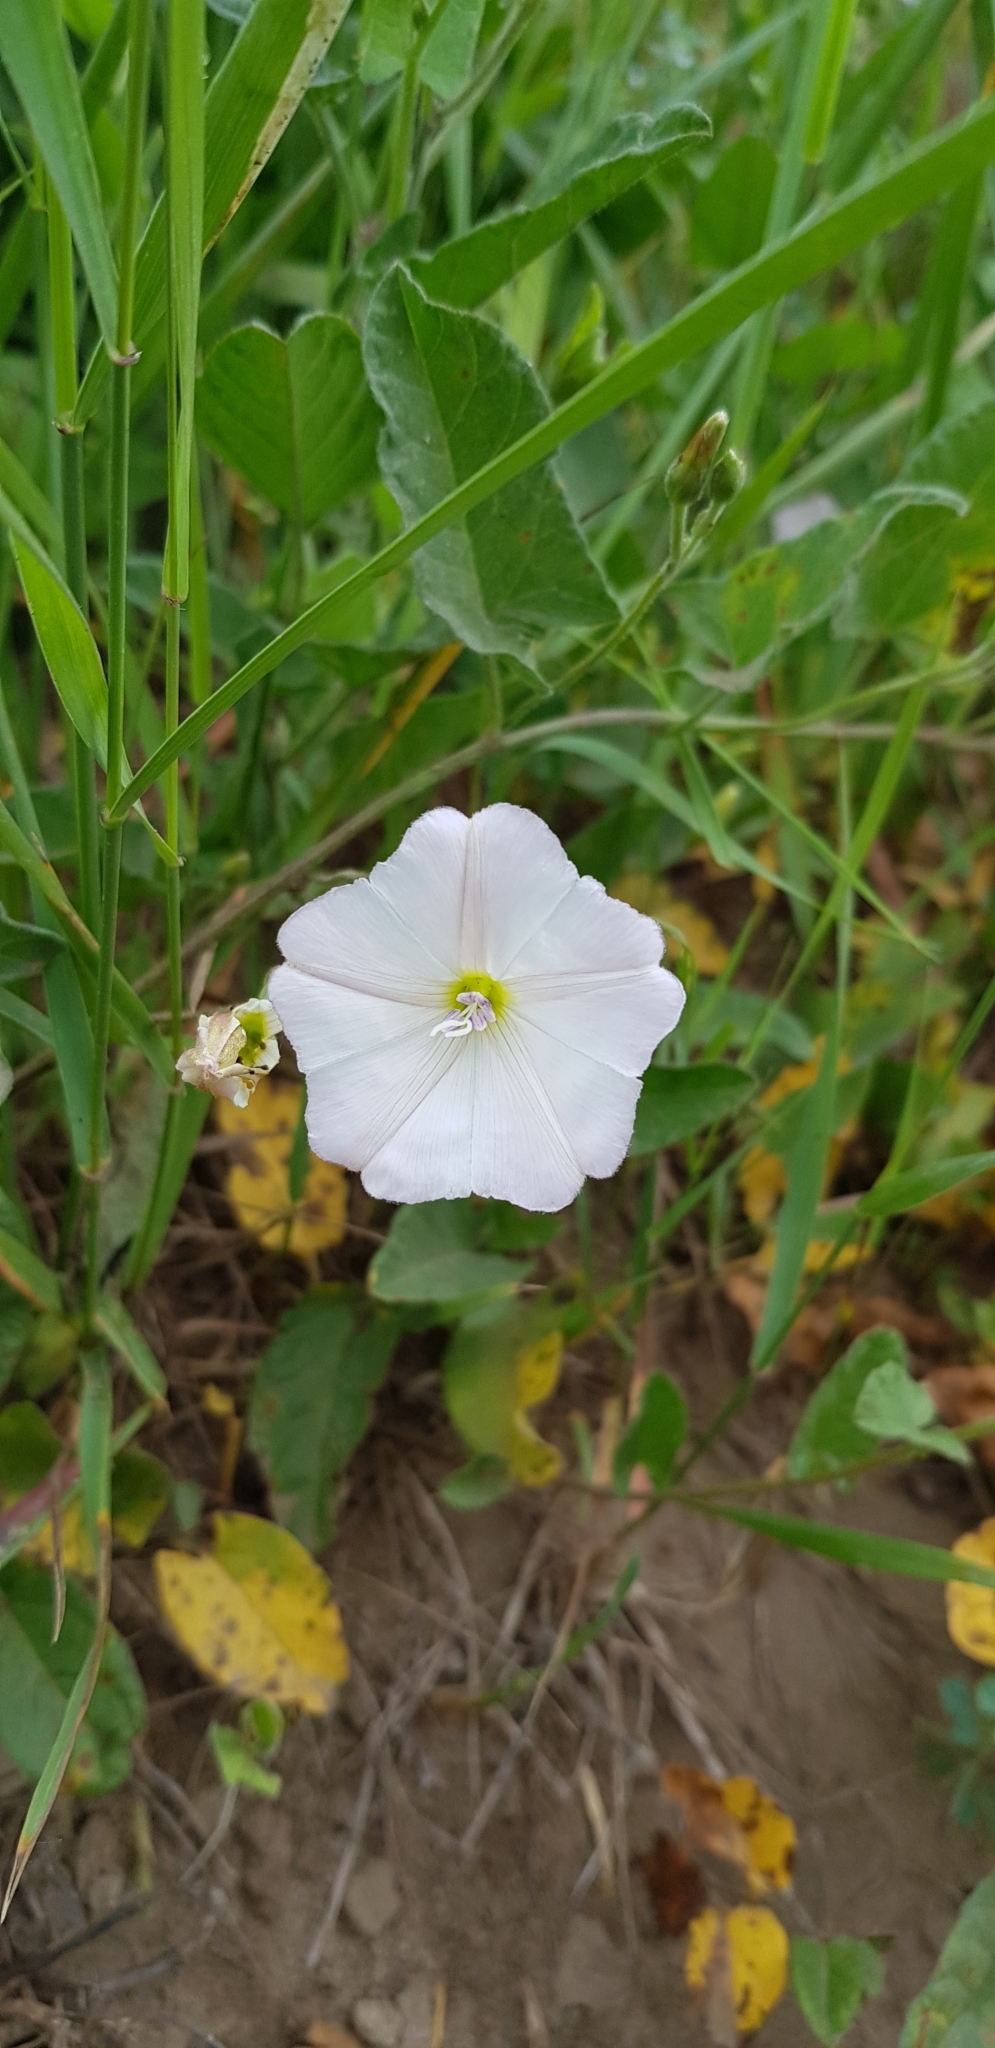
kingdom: Plantae
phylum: Tracheophyta
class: Magnoliopsida
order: Solanales
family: Convolvulaceae
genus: Convolvulus
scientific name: Convolvulus arvensis
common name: Field bindweed
